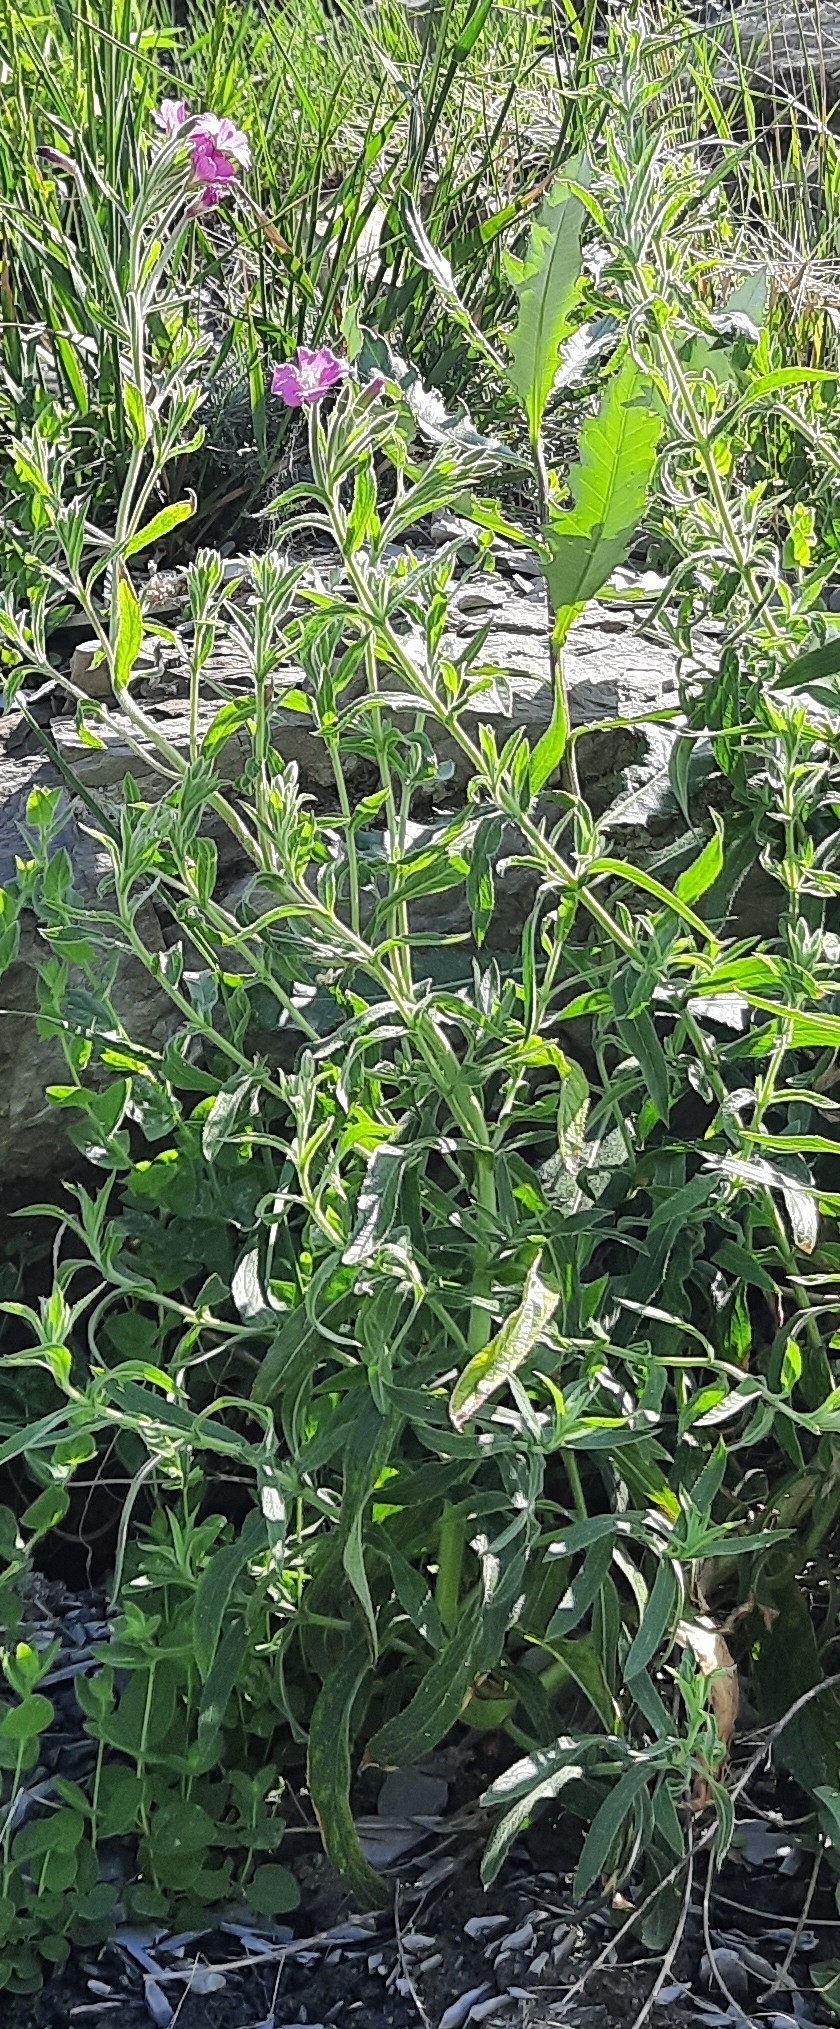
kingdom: Plantae
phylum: Tracheophyta
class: Magnoliopsida
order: Myrtales
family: Onagraceae
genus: Epilobium
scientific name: Epilobium hirsutum
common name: Great willowherb
